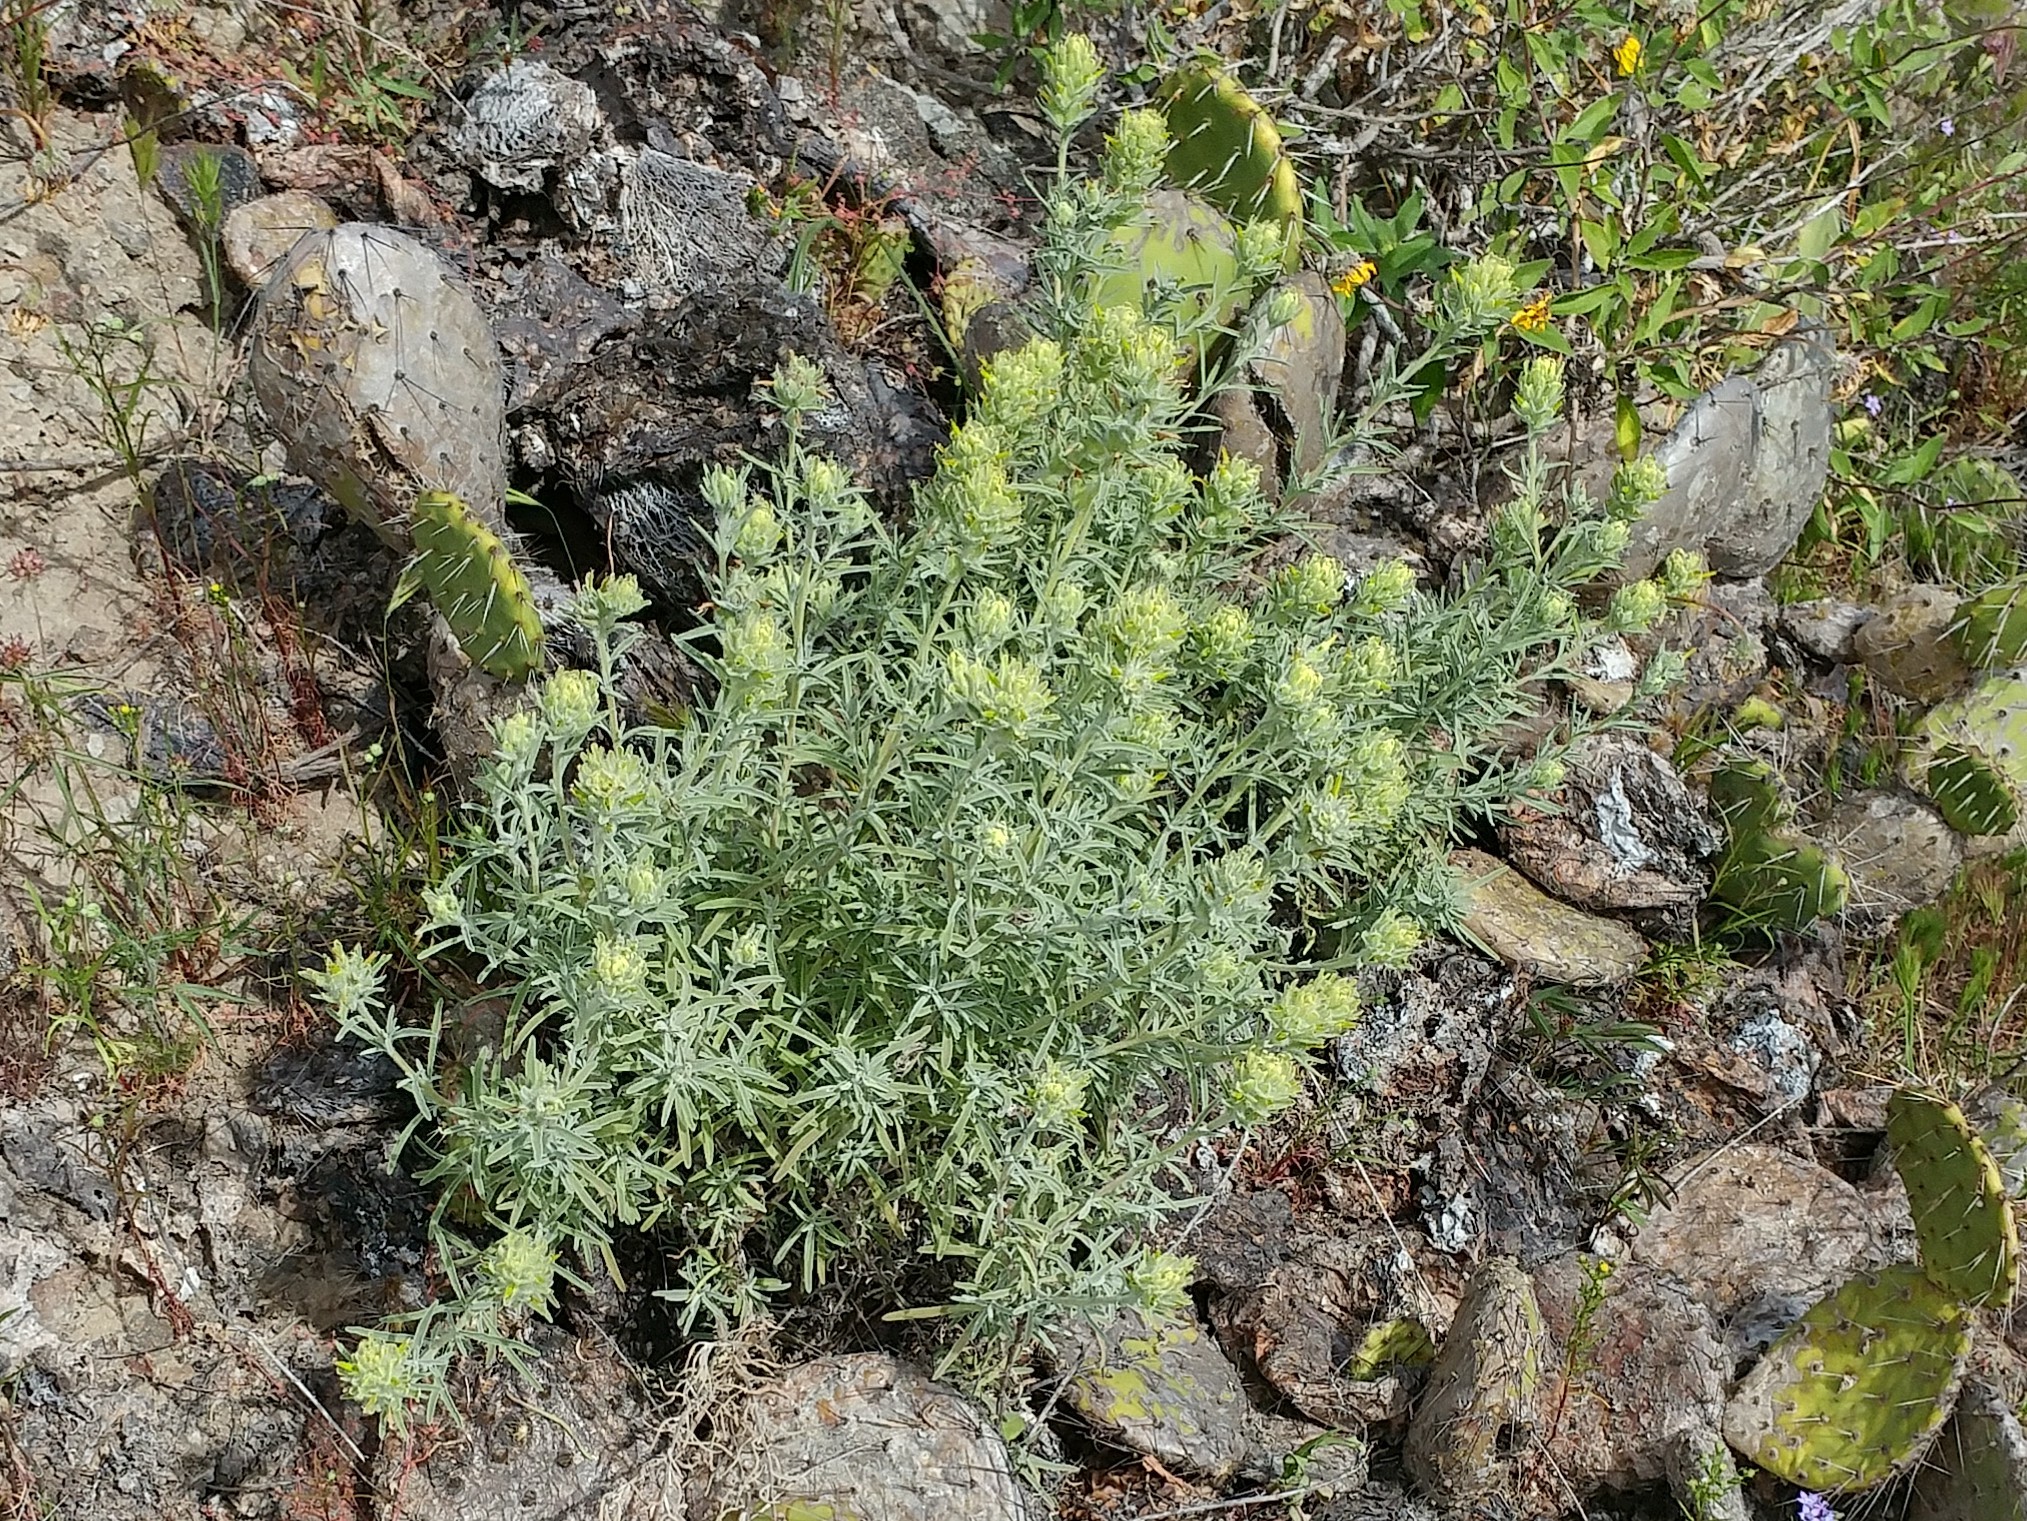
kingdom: Plantae
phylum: Tracheophyta
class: Magnoliopsida
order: Lamiales
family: Orobanchaceae
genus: Castilleja
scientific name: Castilleja grisea
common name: San clemente island indian paintbrush
